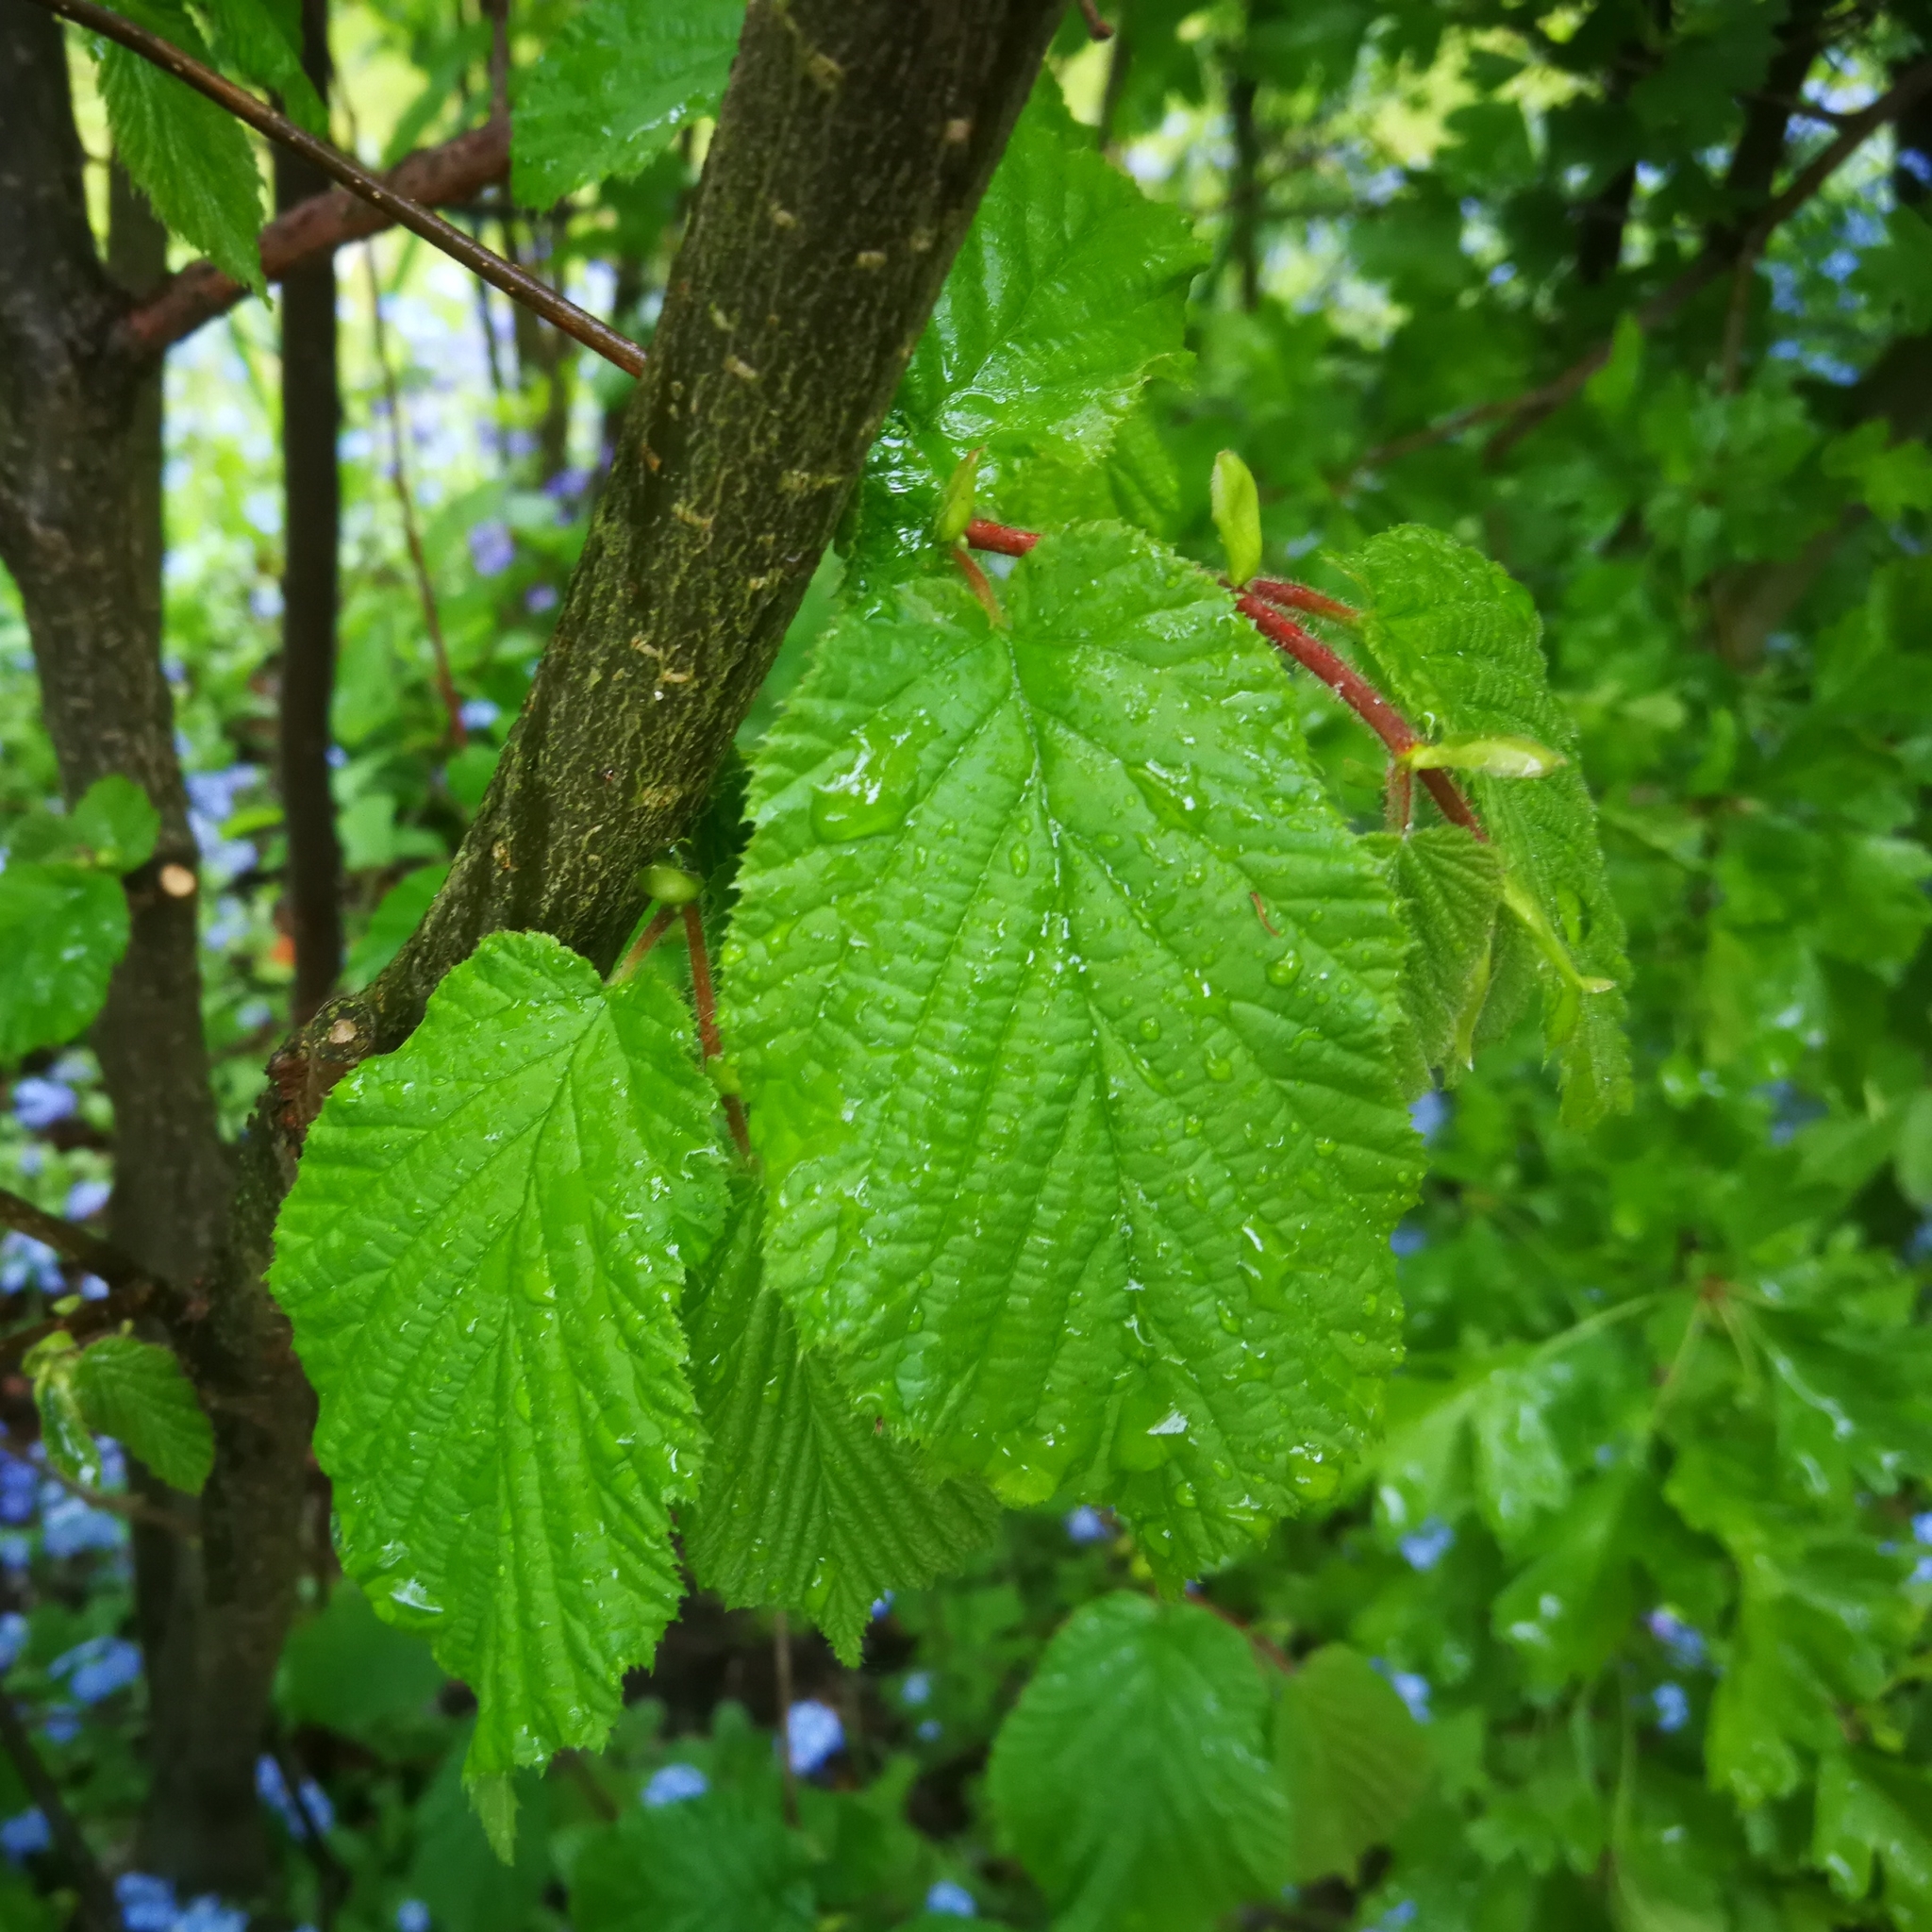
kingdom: Plantae
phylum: Tracheophyta
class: Magnoliopsida
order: Fagales
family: Betulaceae
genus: Corylus
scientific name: Corylus avellana
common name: European hazel
